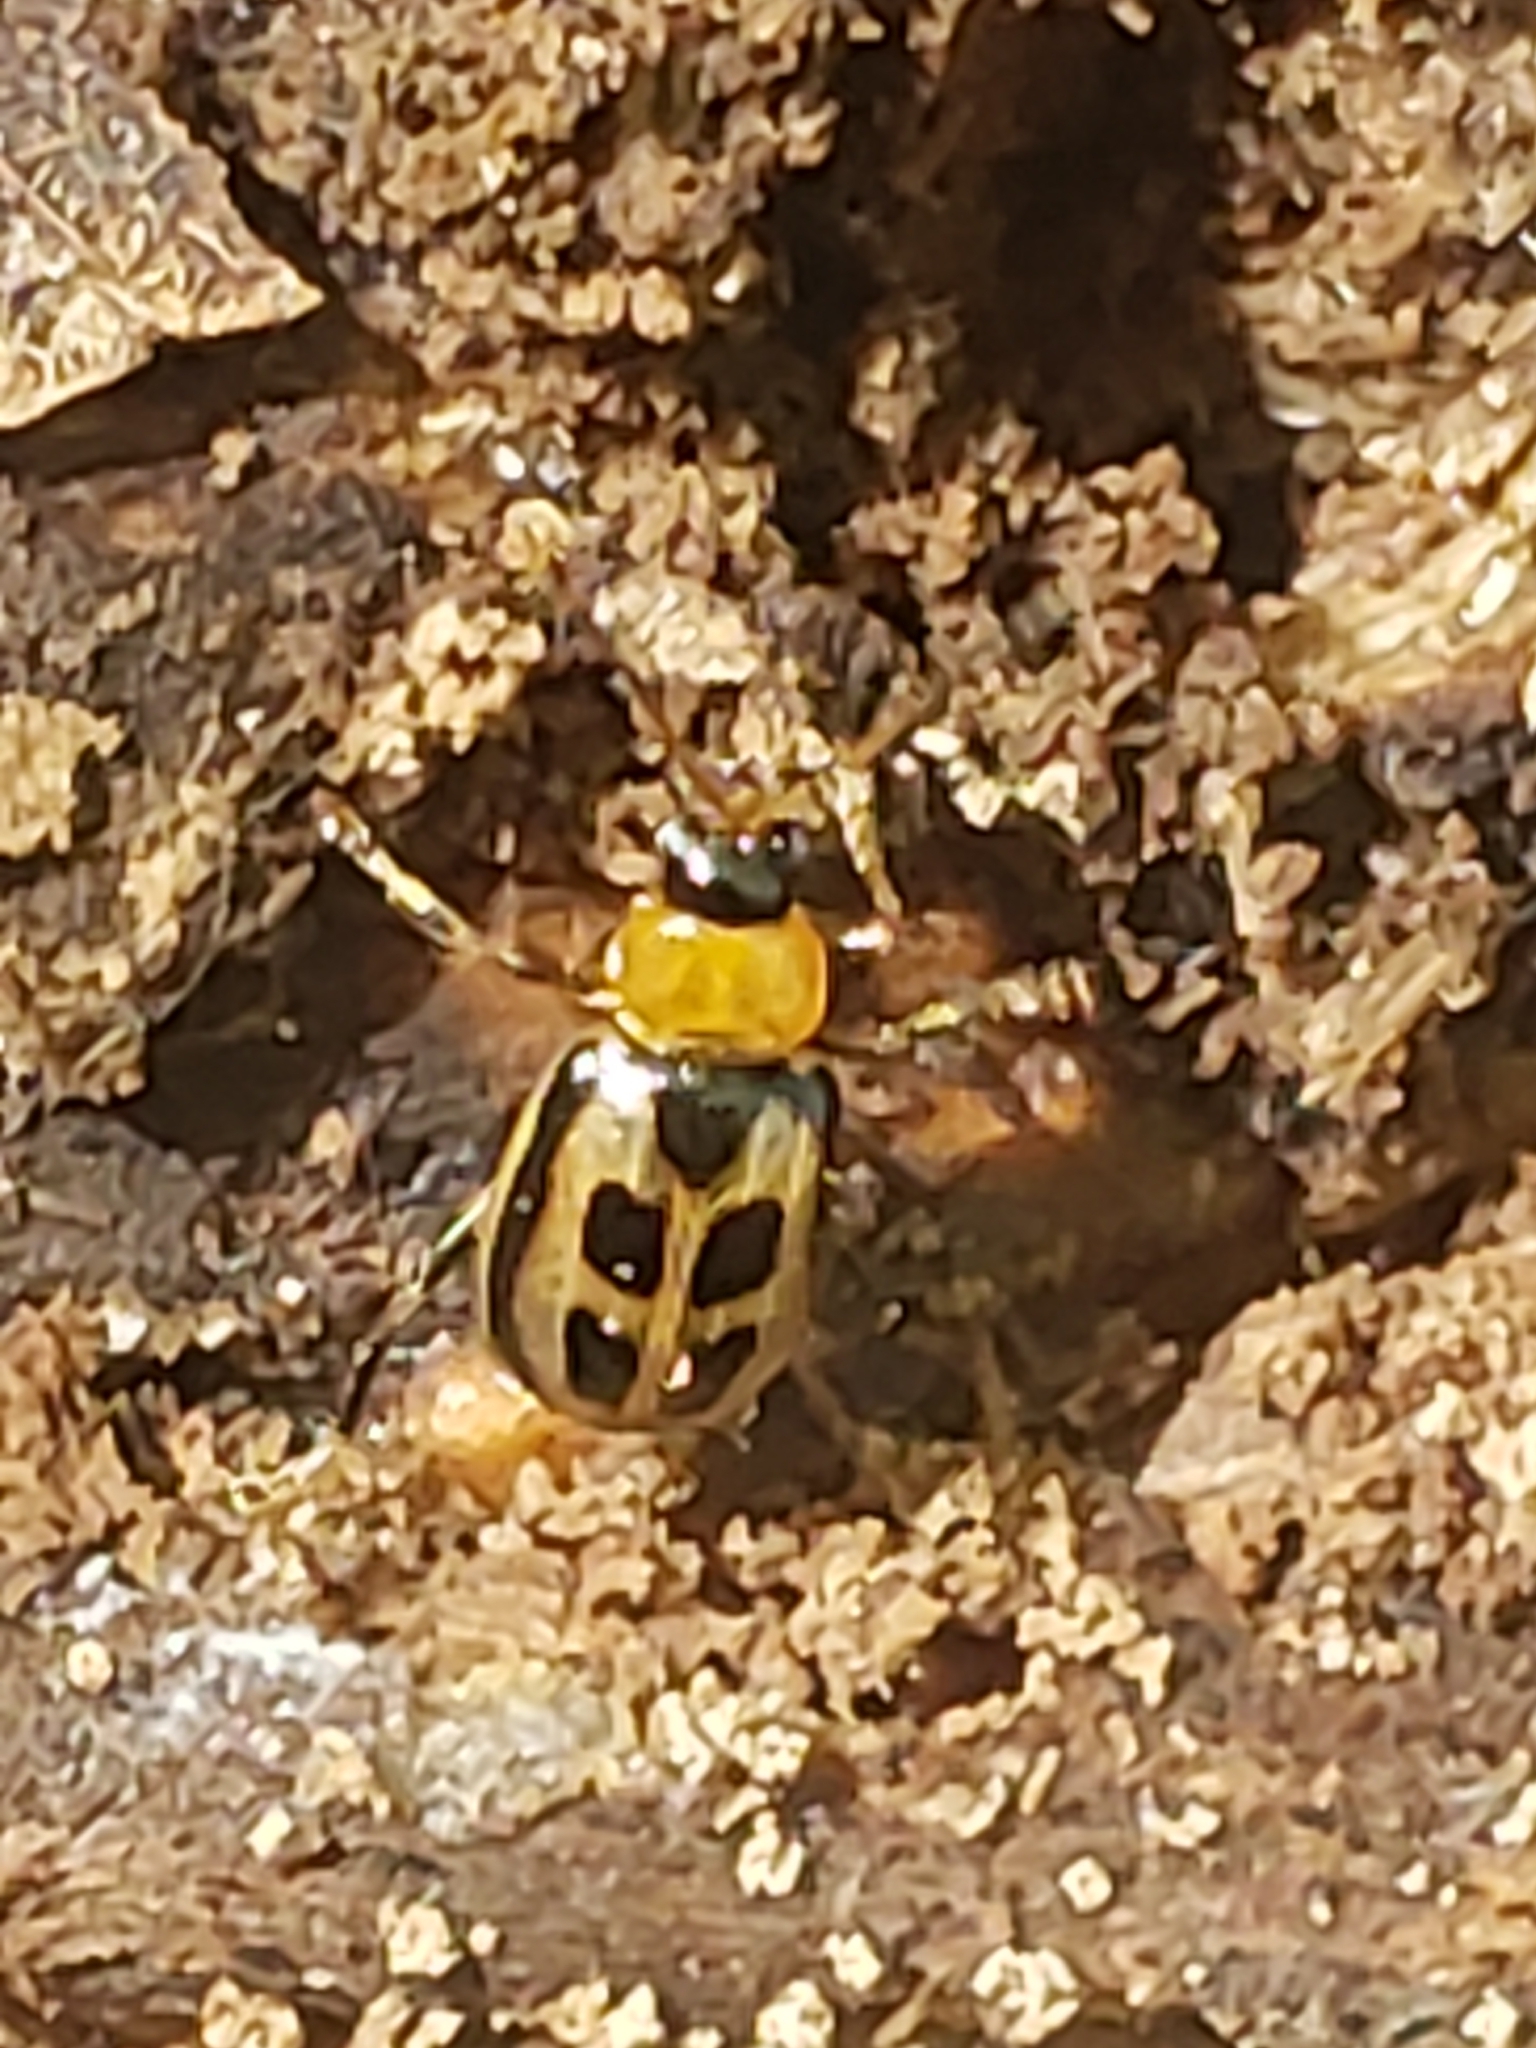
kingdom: Animalia
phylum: Arthropoda
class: Insecta
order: Coleoptera
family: Chrysomelidae
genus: Cerotoma
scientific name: Cerotoma trifurcata
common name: Bean leaf beetle
